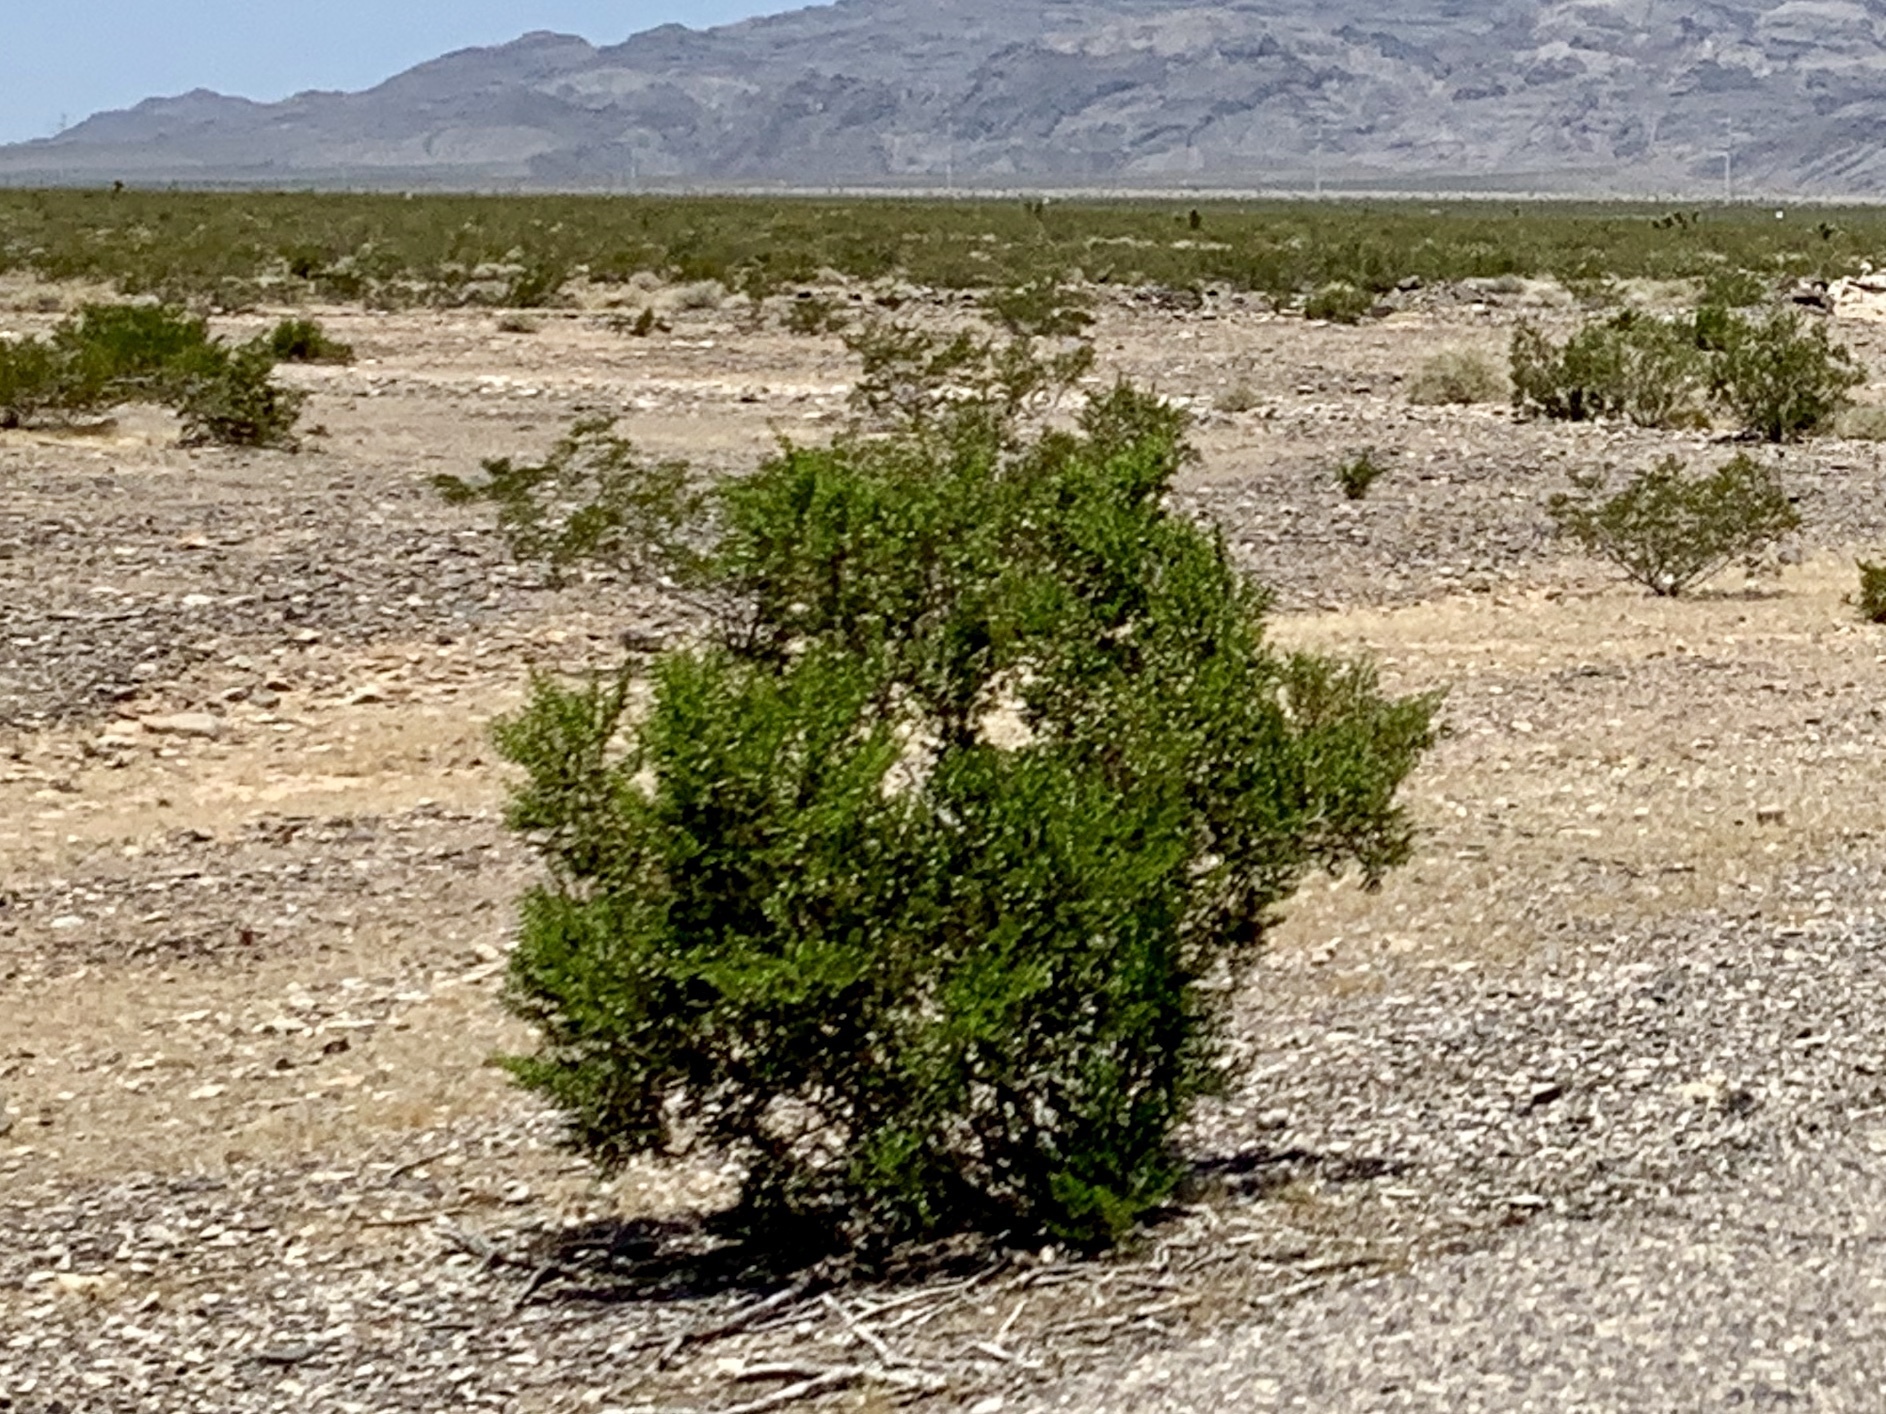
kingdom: Plantae
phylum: Tracheophyta
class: Magnoliopsida
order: Zygophyllales
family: Zygophyllaceae
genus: Larrea
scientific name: Larrea tridentata
